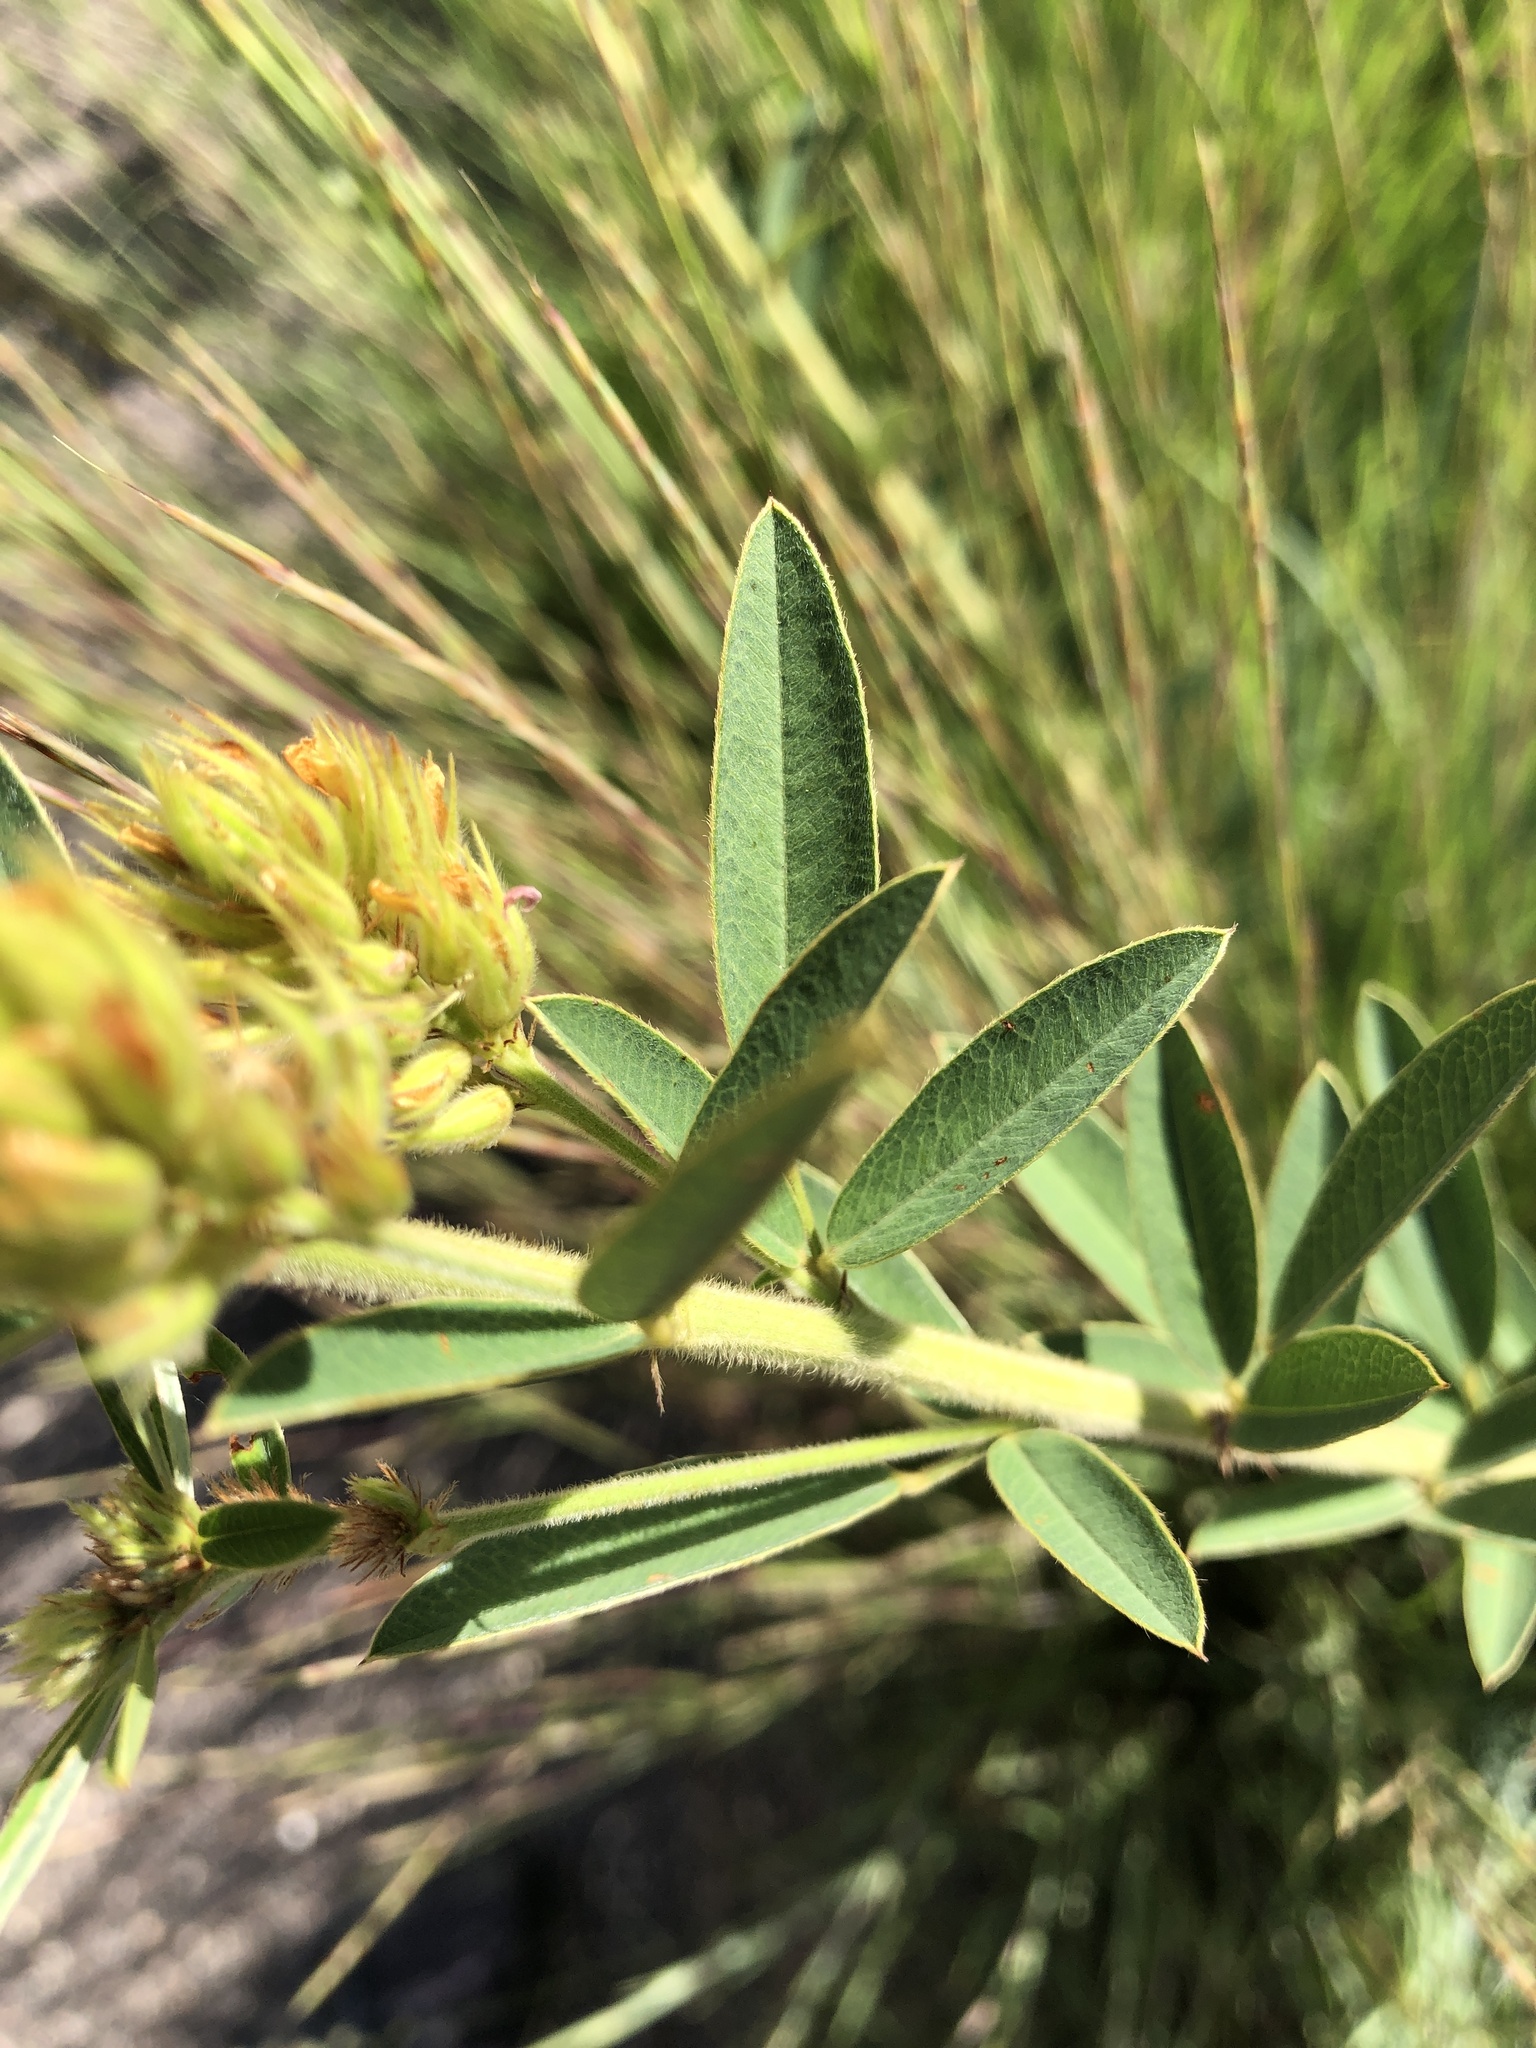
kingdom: Plantae
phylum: Tracheophyta
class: Magnoliopsida
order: Fabales
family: Fabaceae
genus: Lespedeza
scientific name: Lespedeza capitata
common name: Dusty clover
